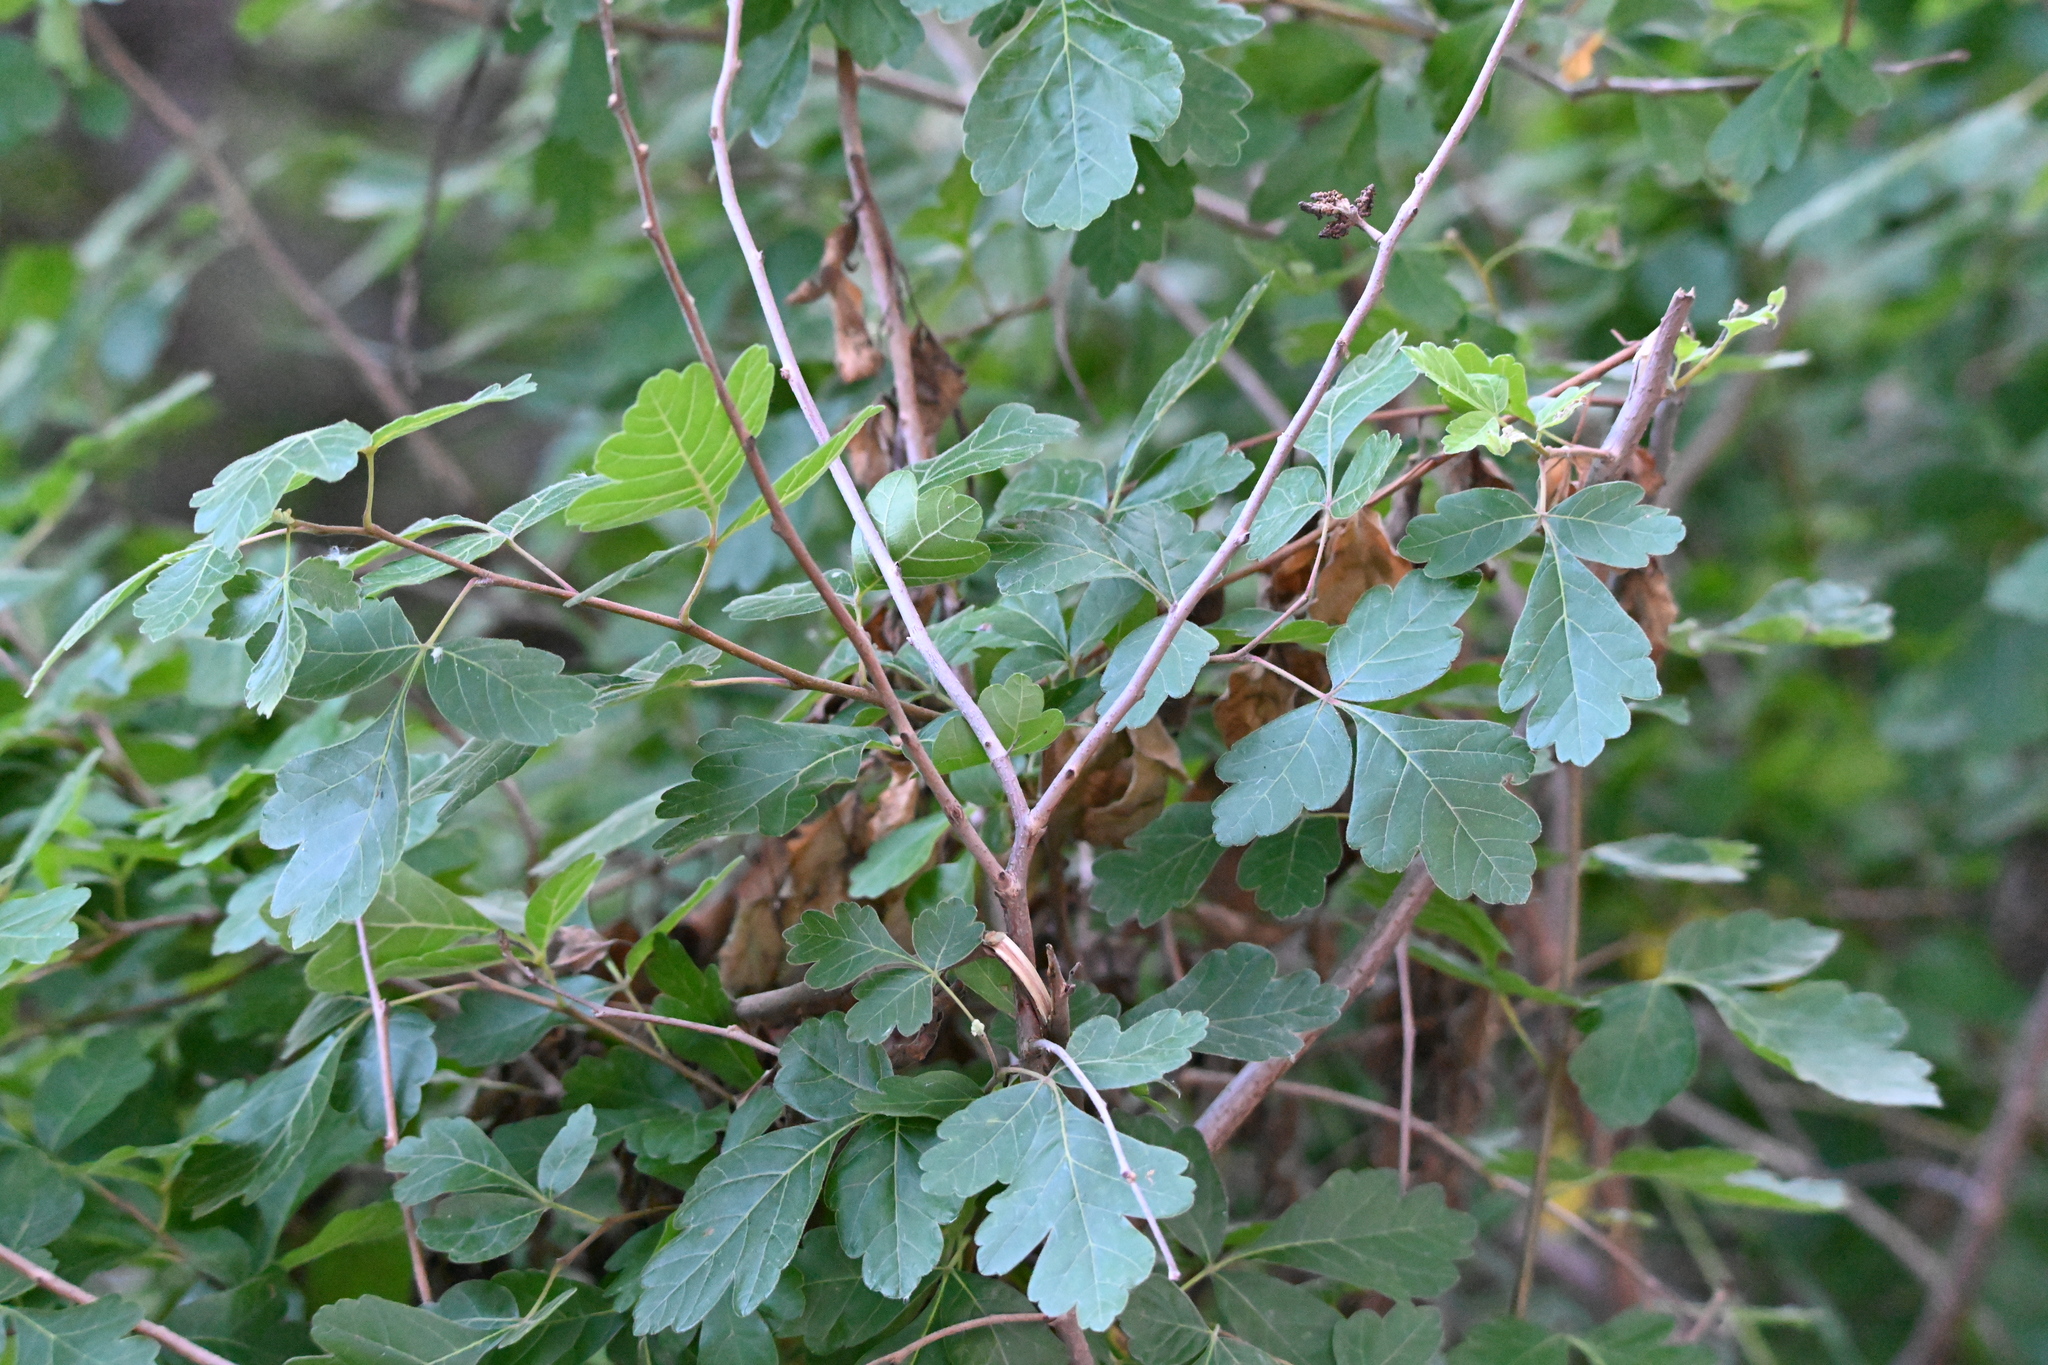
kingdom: Plantae
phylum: Tracheophyta
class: Magnoliopsida
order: Sapindales
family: Anacardiaceae
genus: Rhus
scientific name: Rhus aromatica
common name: Aromatic sumac
